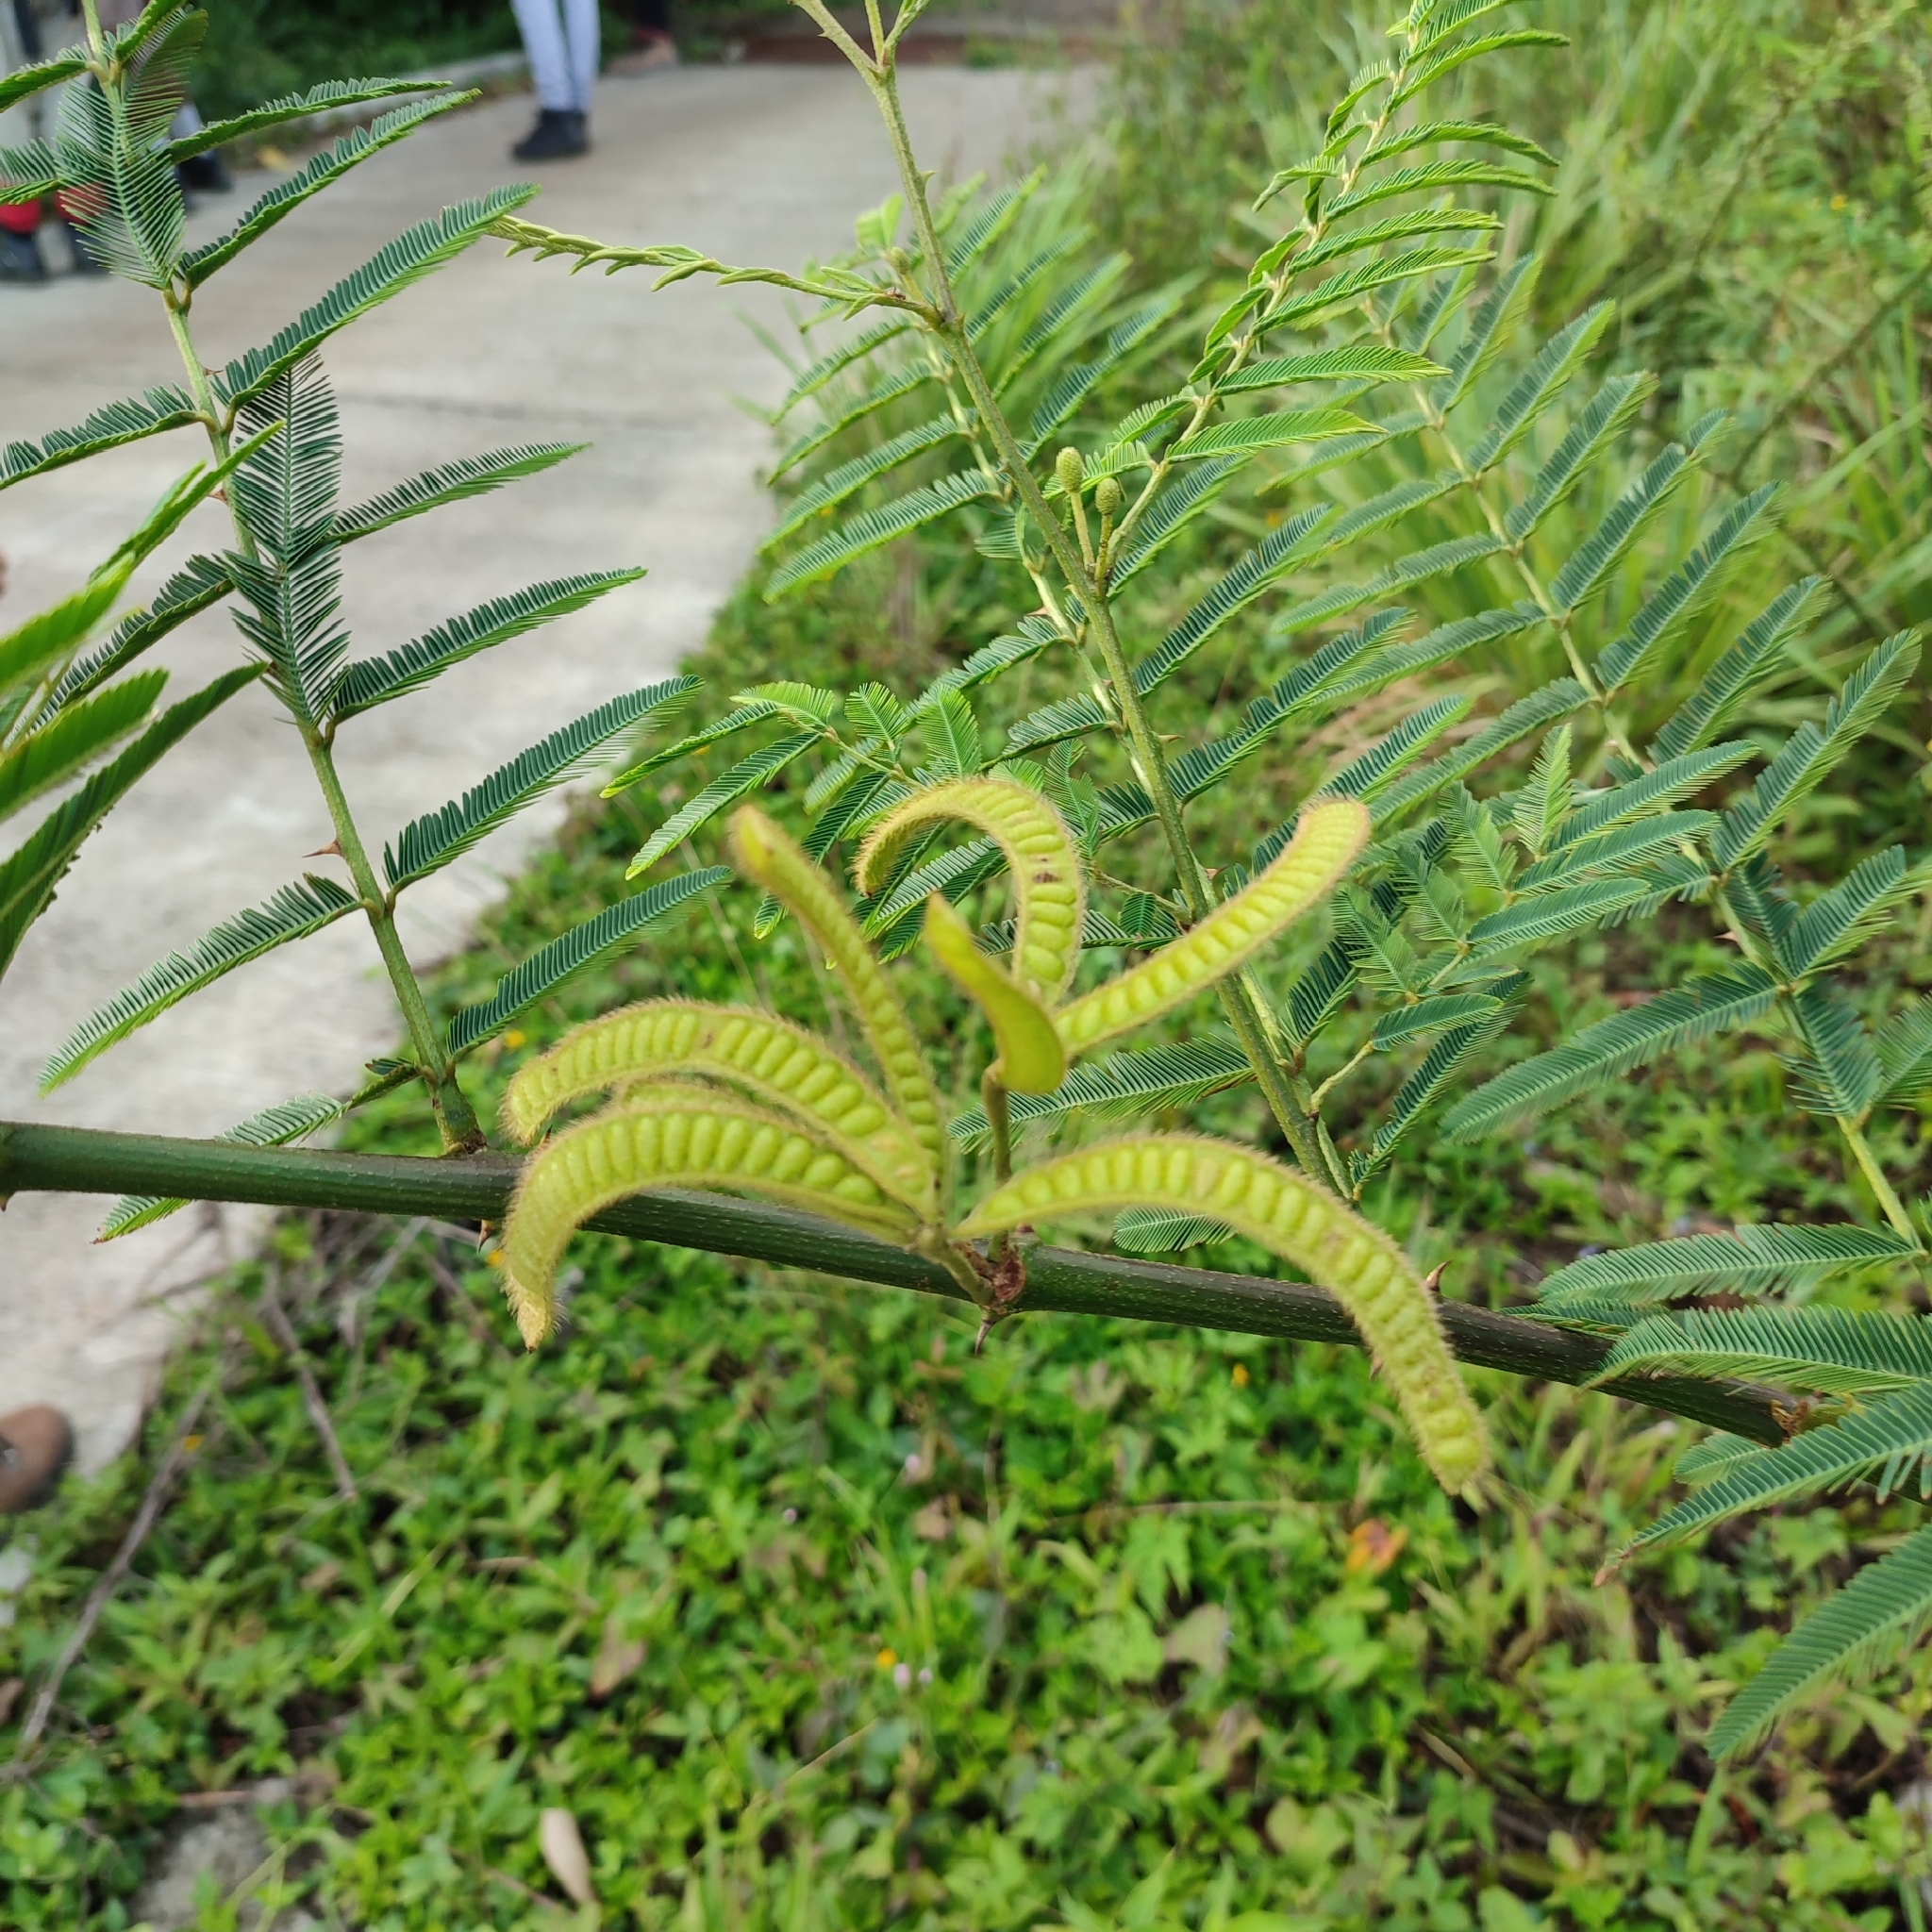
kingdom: Plantae
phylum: Tracheophyta
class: Magnoliopsida
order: Fabales
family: Fabaceae
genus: Mimosa
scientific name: Mimosa pigra
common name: Black mimosa
